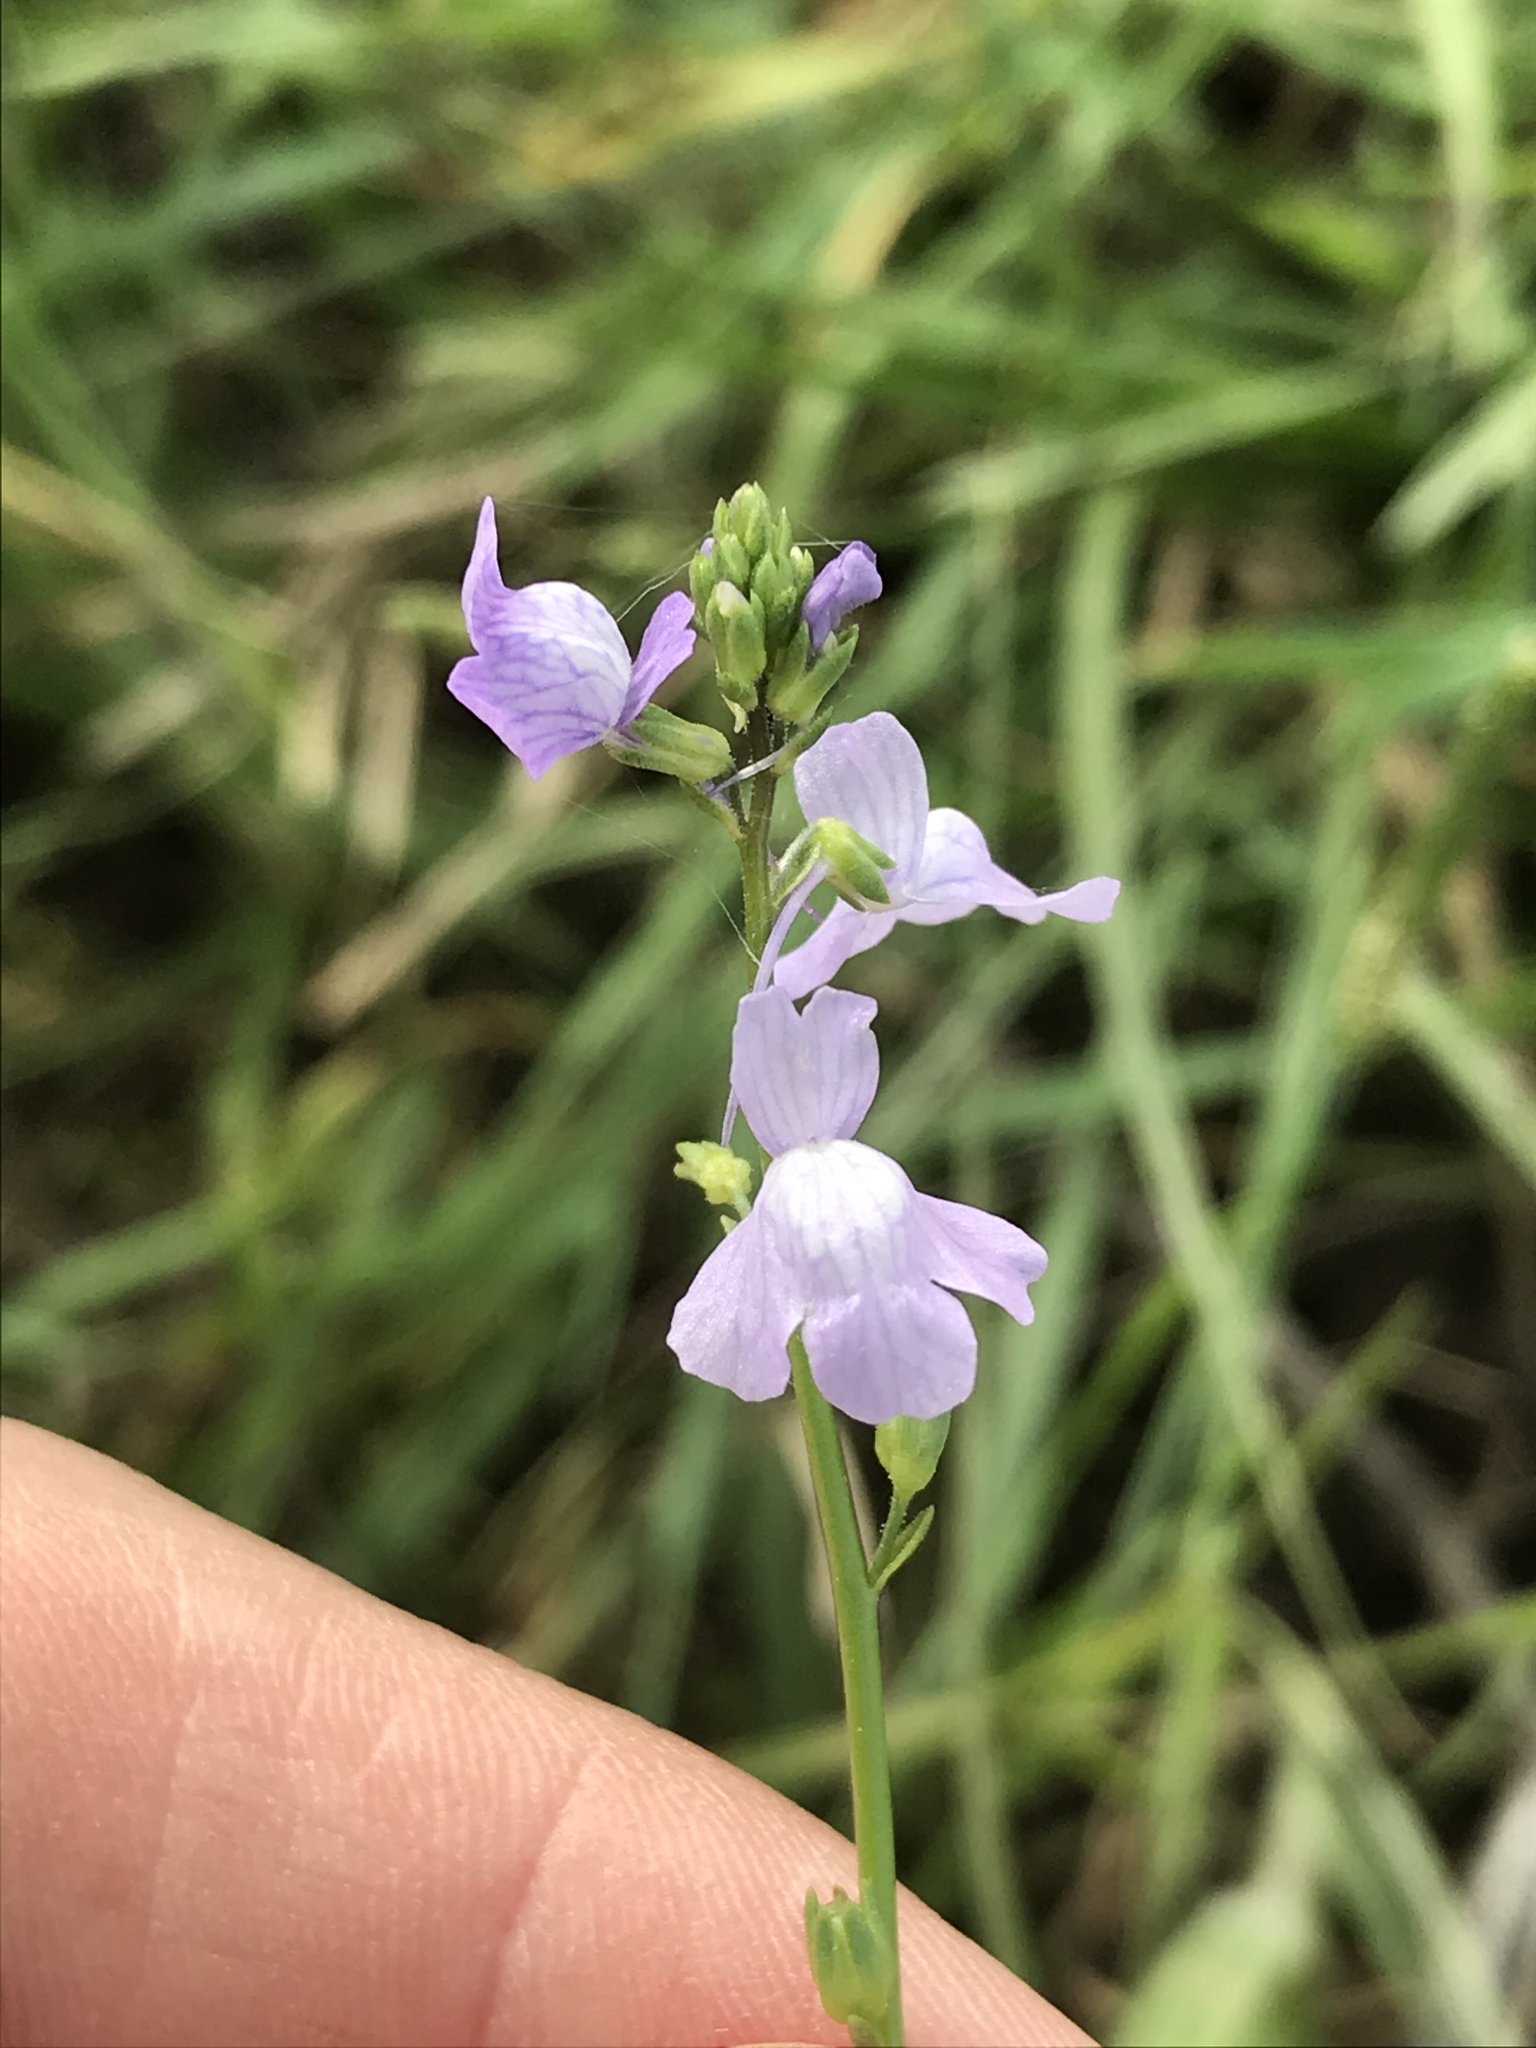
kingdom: Plantae
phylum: Tracheophyta
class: Magnoliopsida
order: Lamiales
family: Plantaginaceae
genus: Nuttallanthus
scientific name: Nuttallanthus texanus
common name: Texas toadflax
